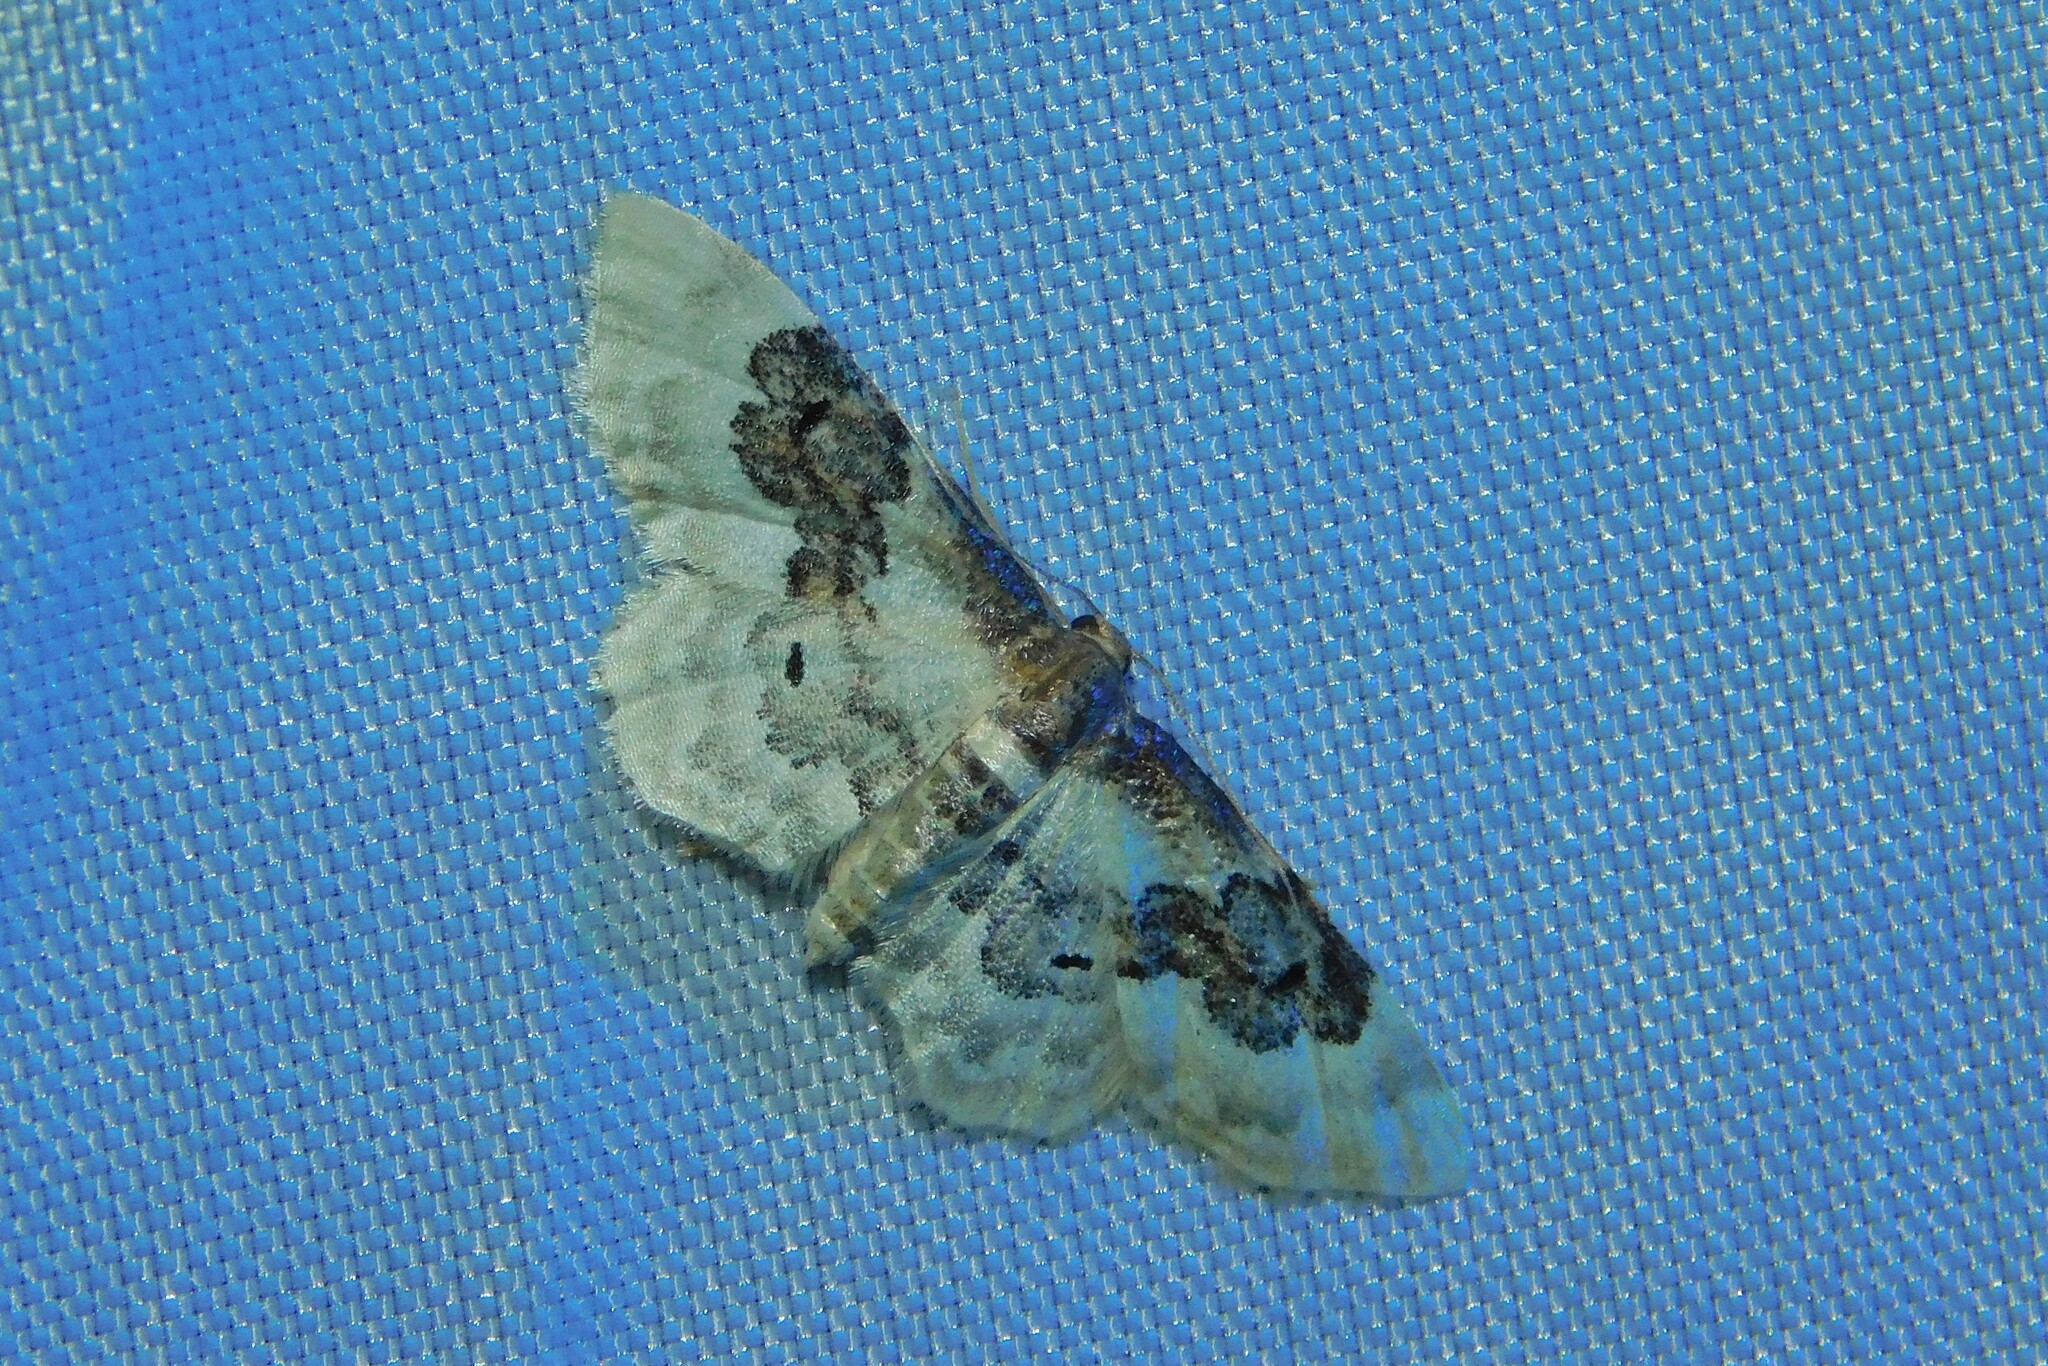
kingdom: Animalia
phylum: Arthropoda
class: Insecta
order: Lepidoptera
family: Geometridae
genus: Idaea
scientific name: Idaea rusticata
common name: Least carpet
